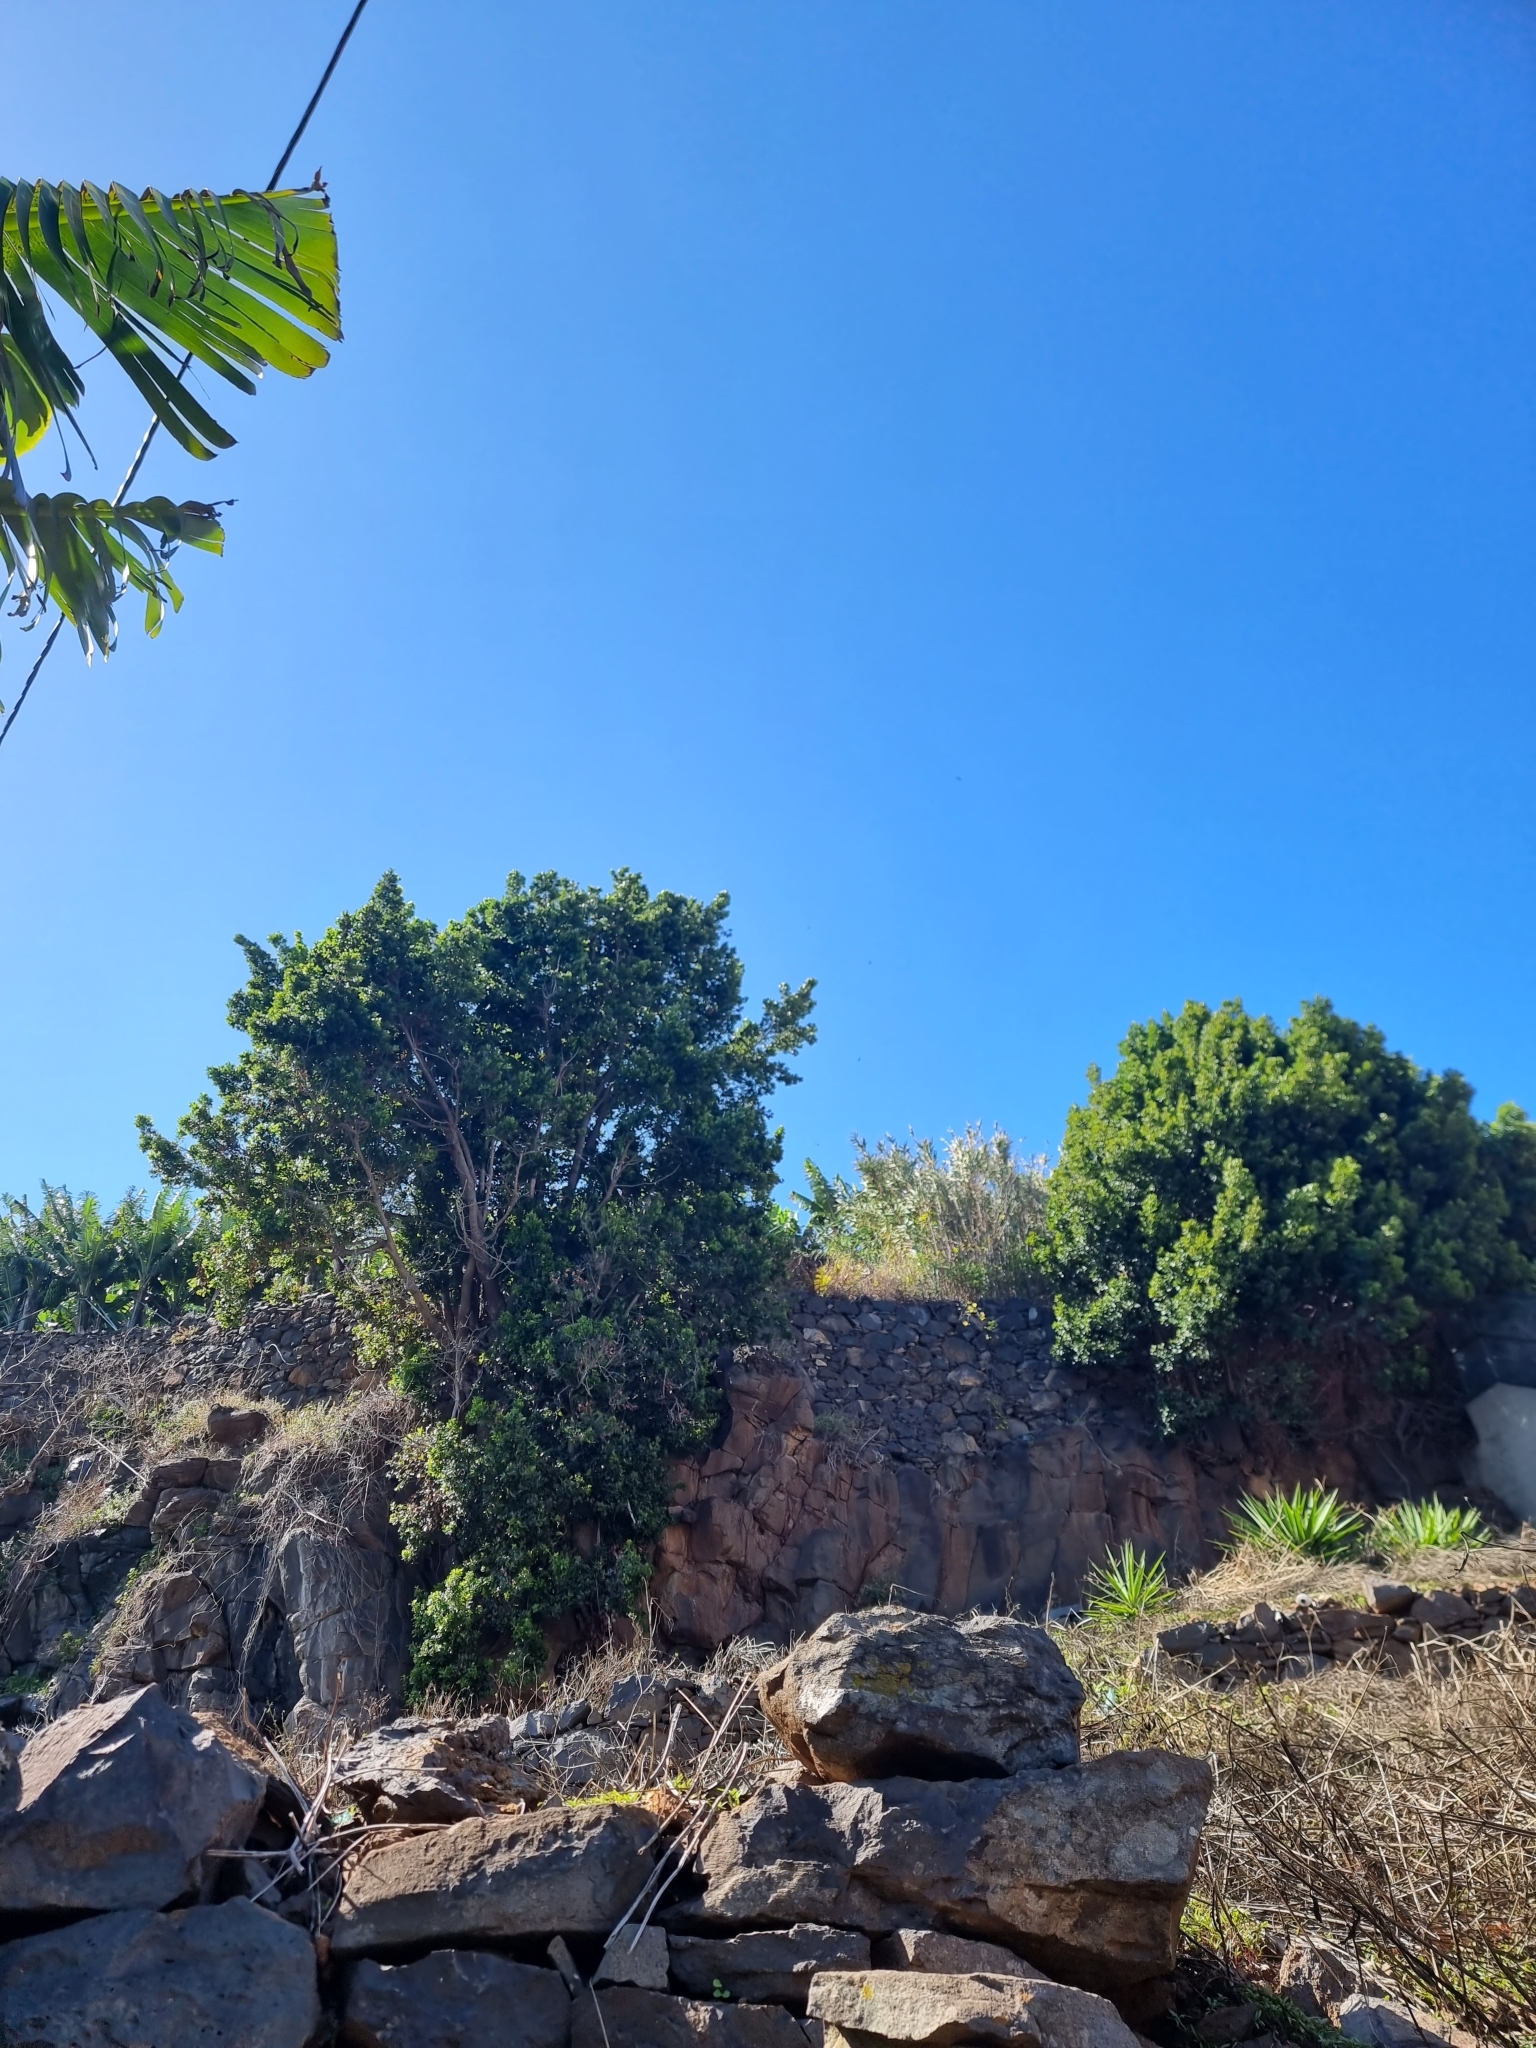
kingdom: Plantae
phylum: Tracheophyta
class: Magnoliopsida
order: Laurales
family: Lauraceae
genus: Apollonias
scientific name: Apollonias barbujana
